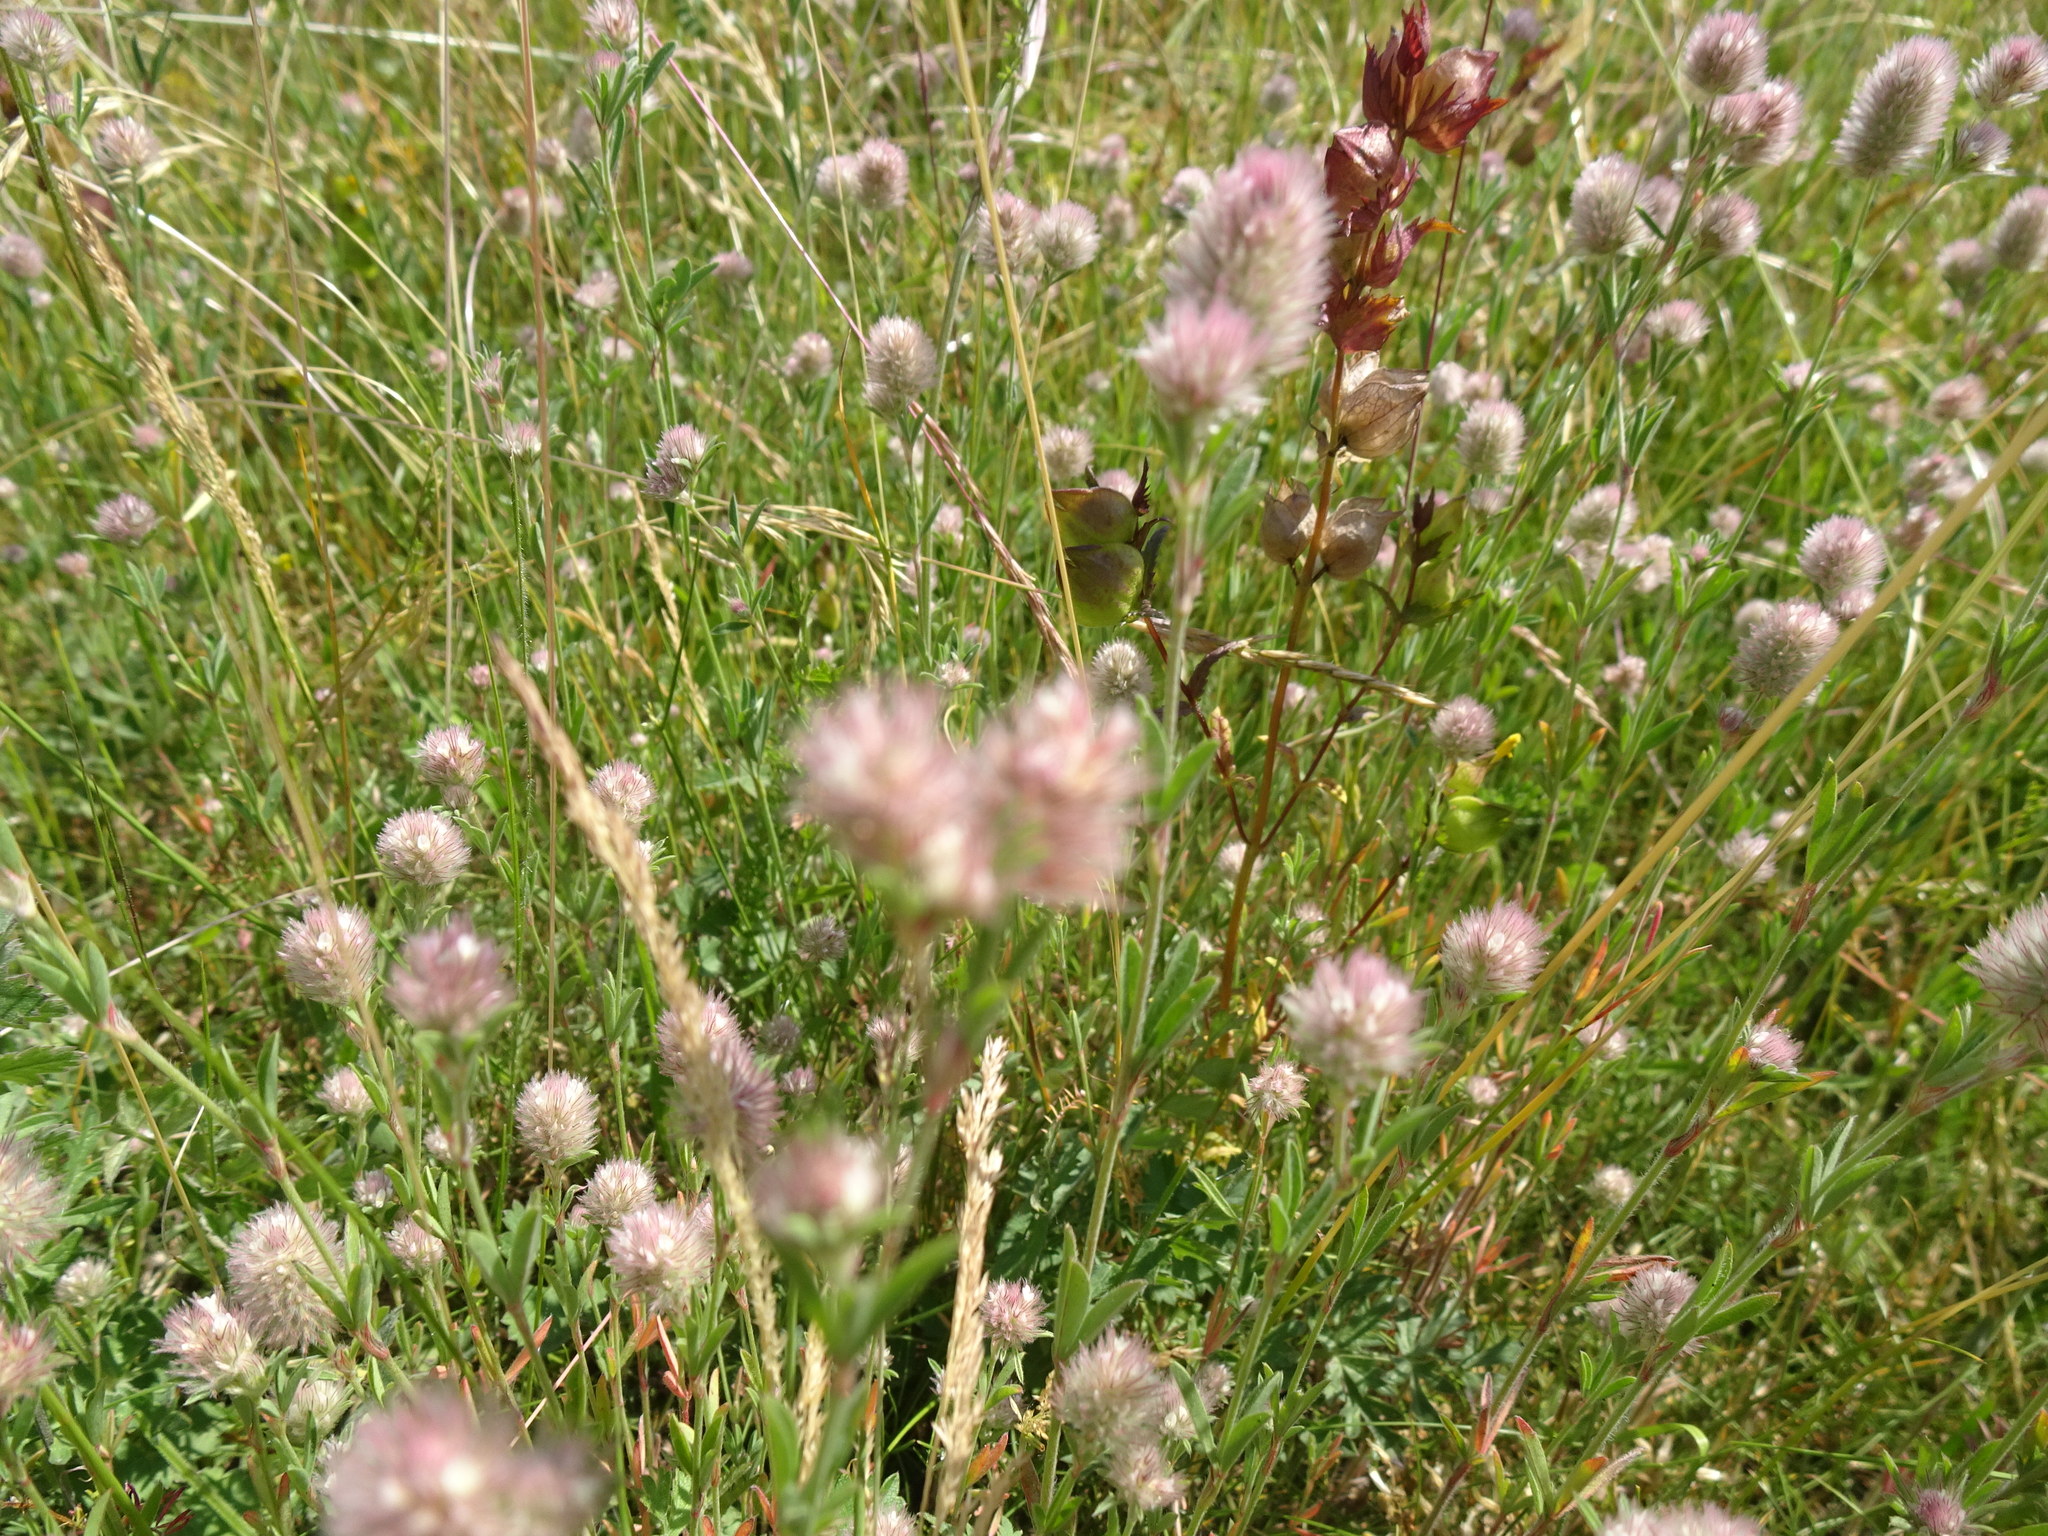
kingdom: Plantae
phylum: Tracheophyta
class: Magnoliopsida
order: Fabales
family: Fabaceae
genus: Trifolium
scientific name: Trifolium arvense
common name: Hare's-foot clover
